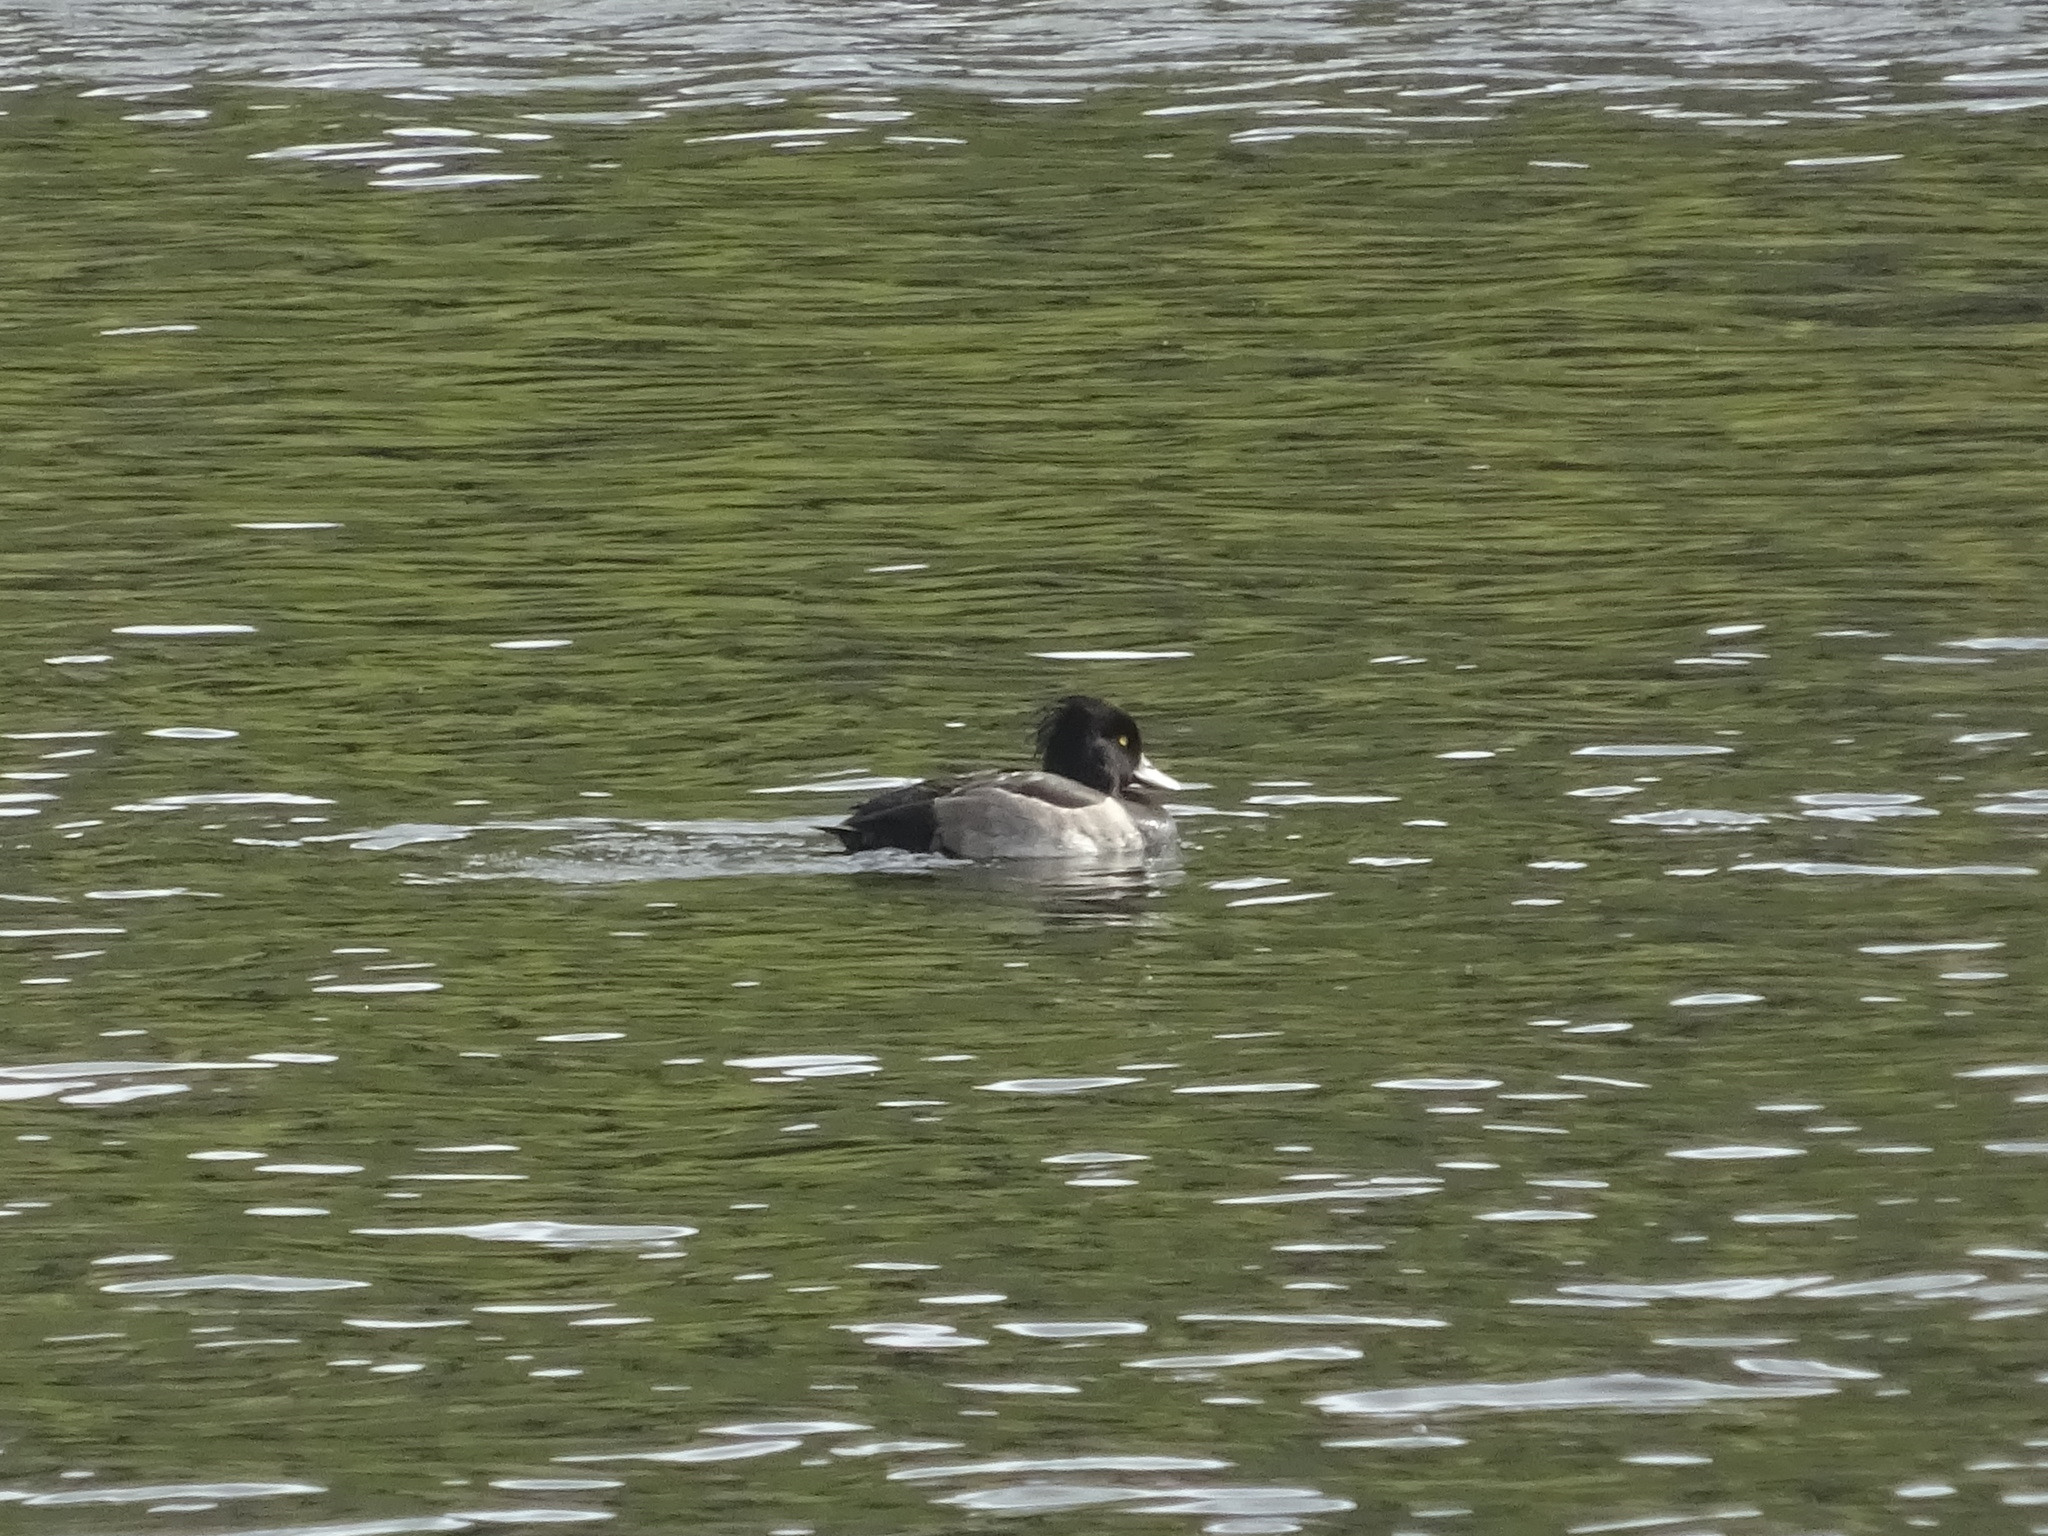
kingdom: Animalia
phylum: Chordata
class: Aves
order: Anseriformes
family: Anatidae
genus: Aythya
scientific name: Aythya fuligula
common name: Tufted duck
